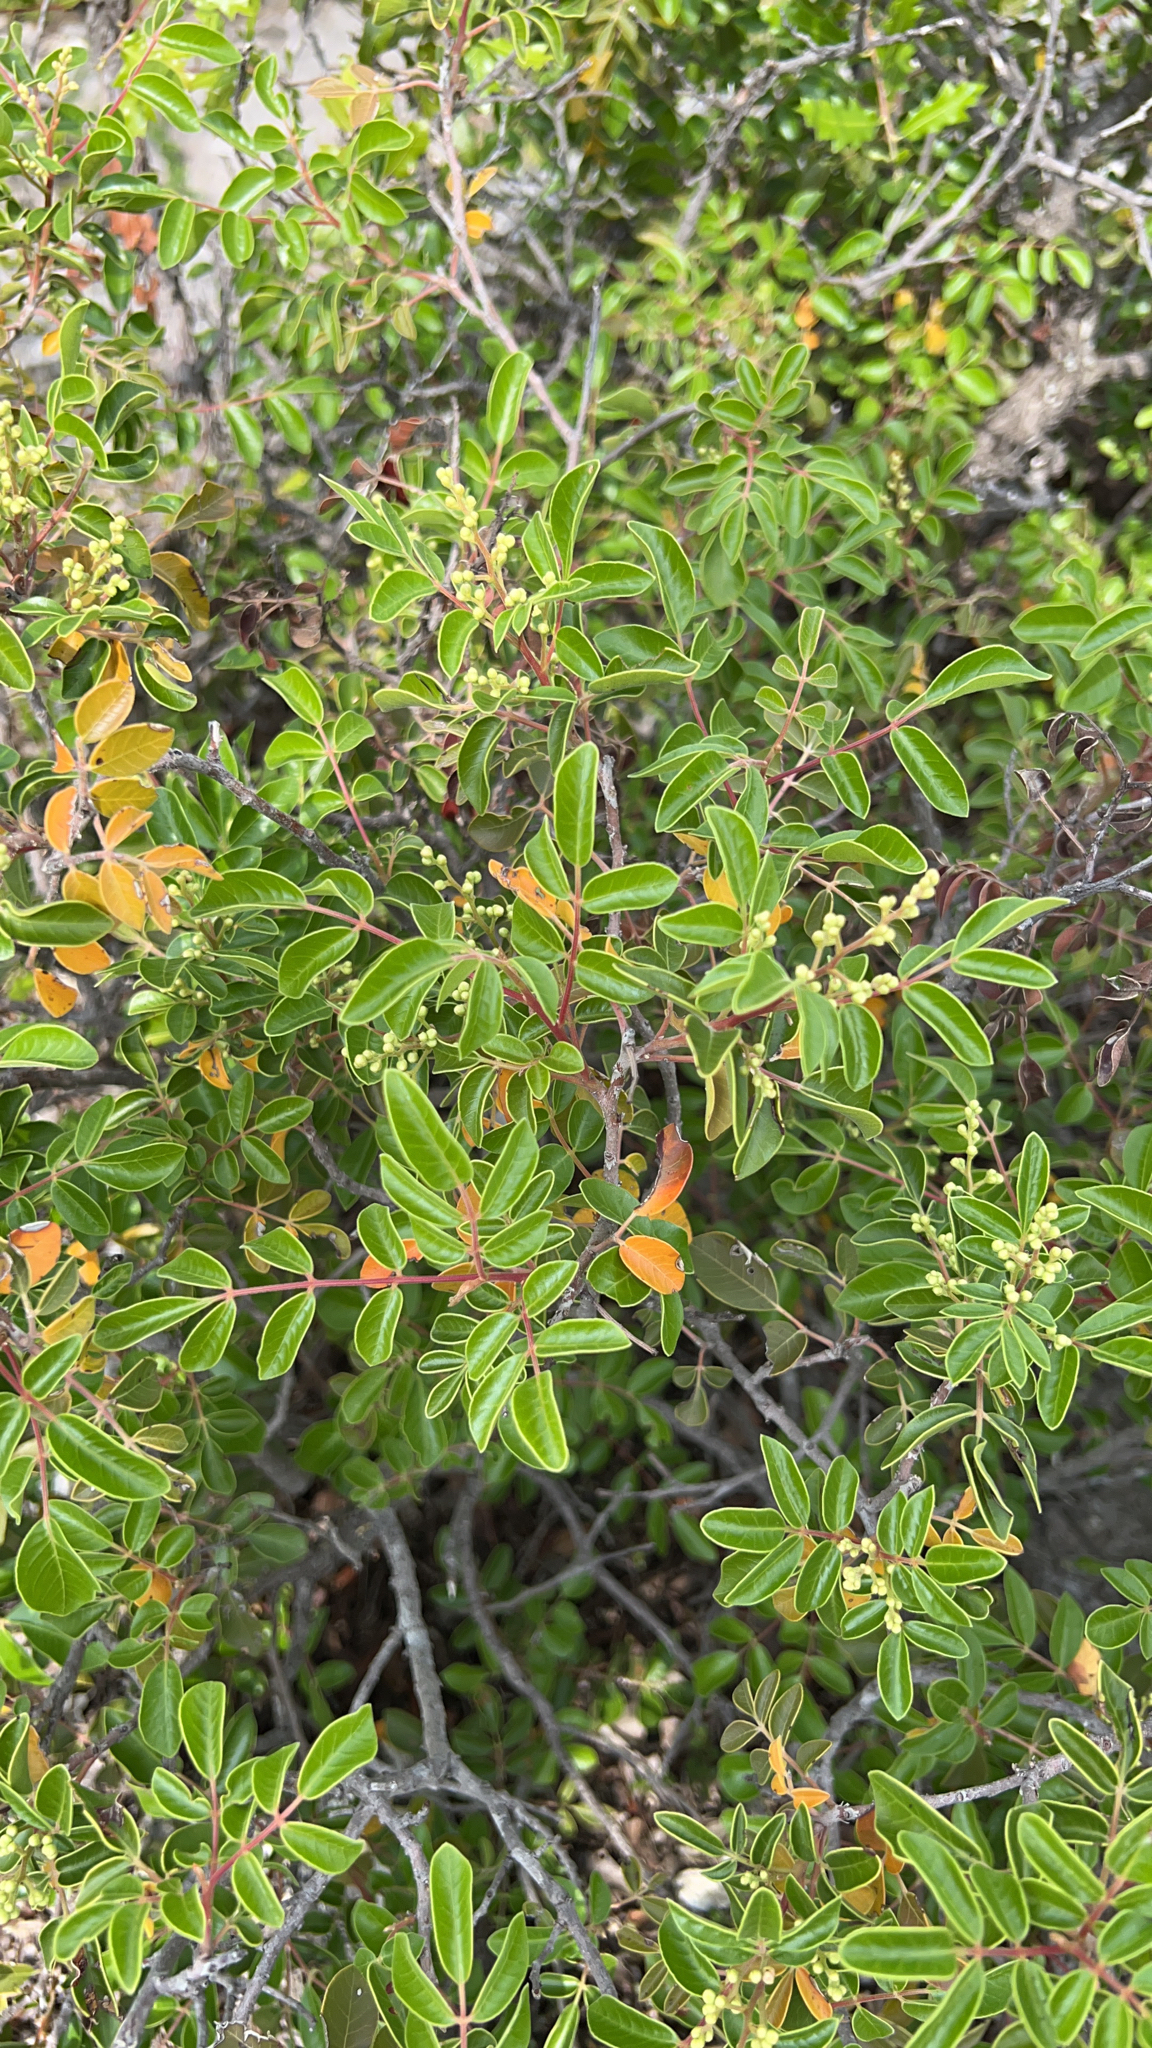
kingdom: Plantae
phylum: Tracheophyta
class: Magnoliopsida
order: Sapindales
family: Anacardiaceae
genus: Rhus
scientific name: Rhus virens
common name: Evergreen sumac
